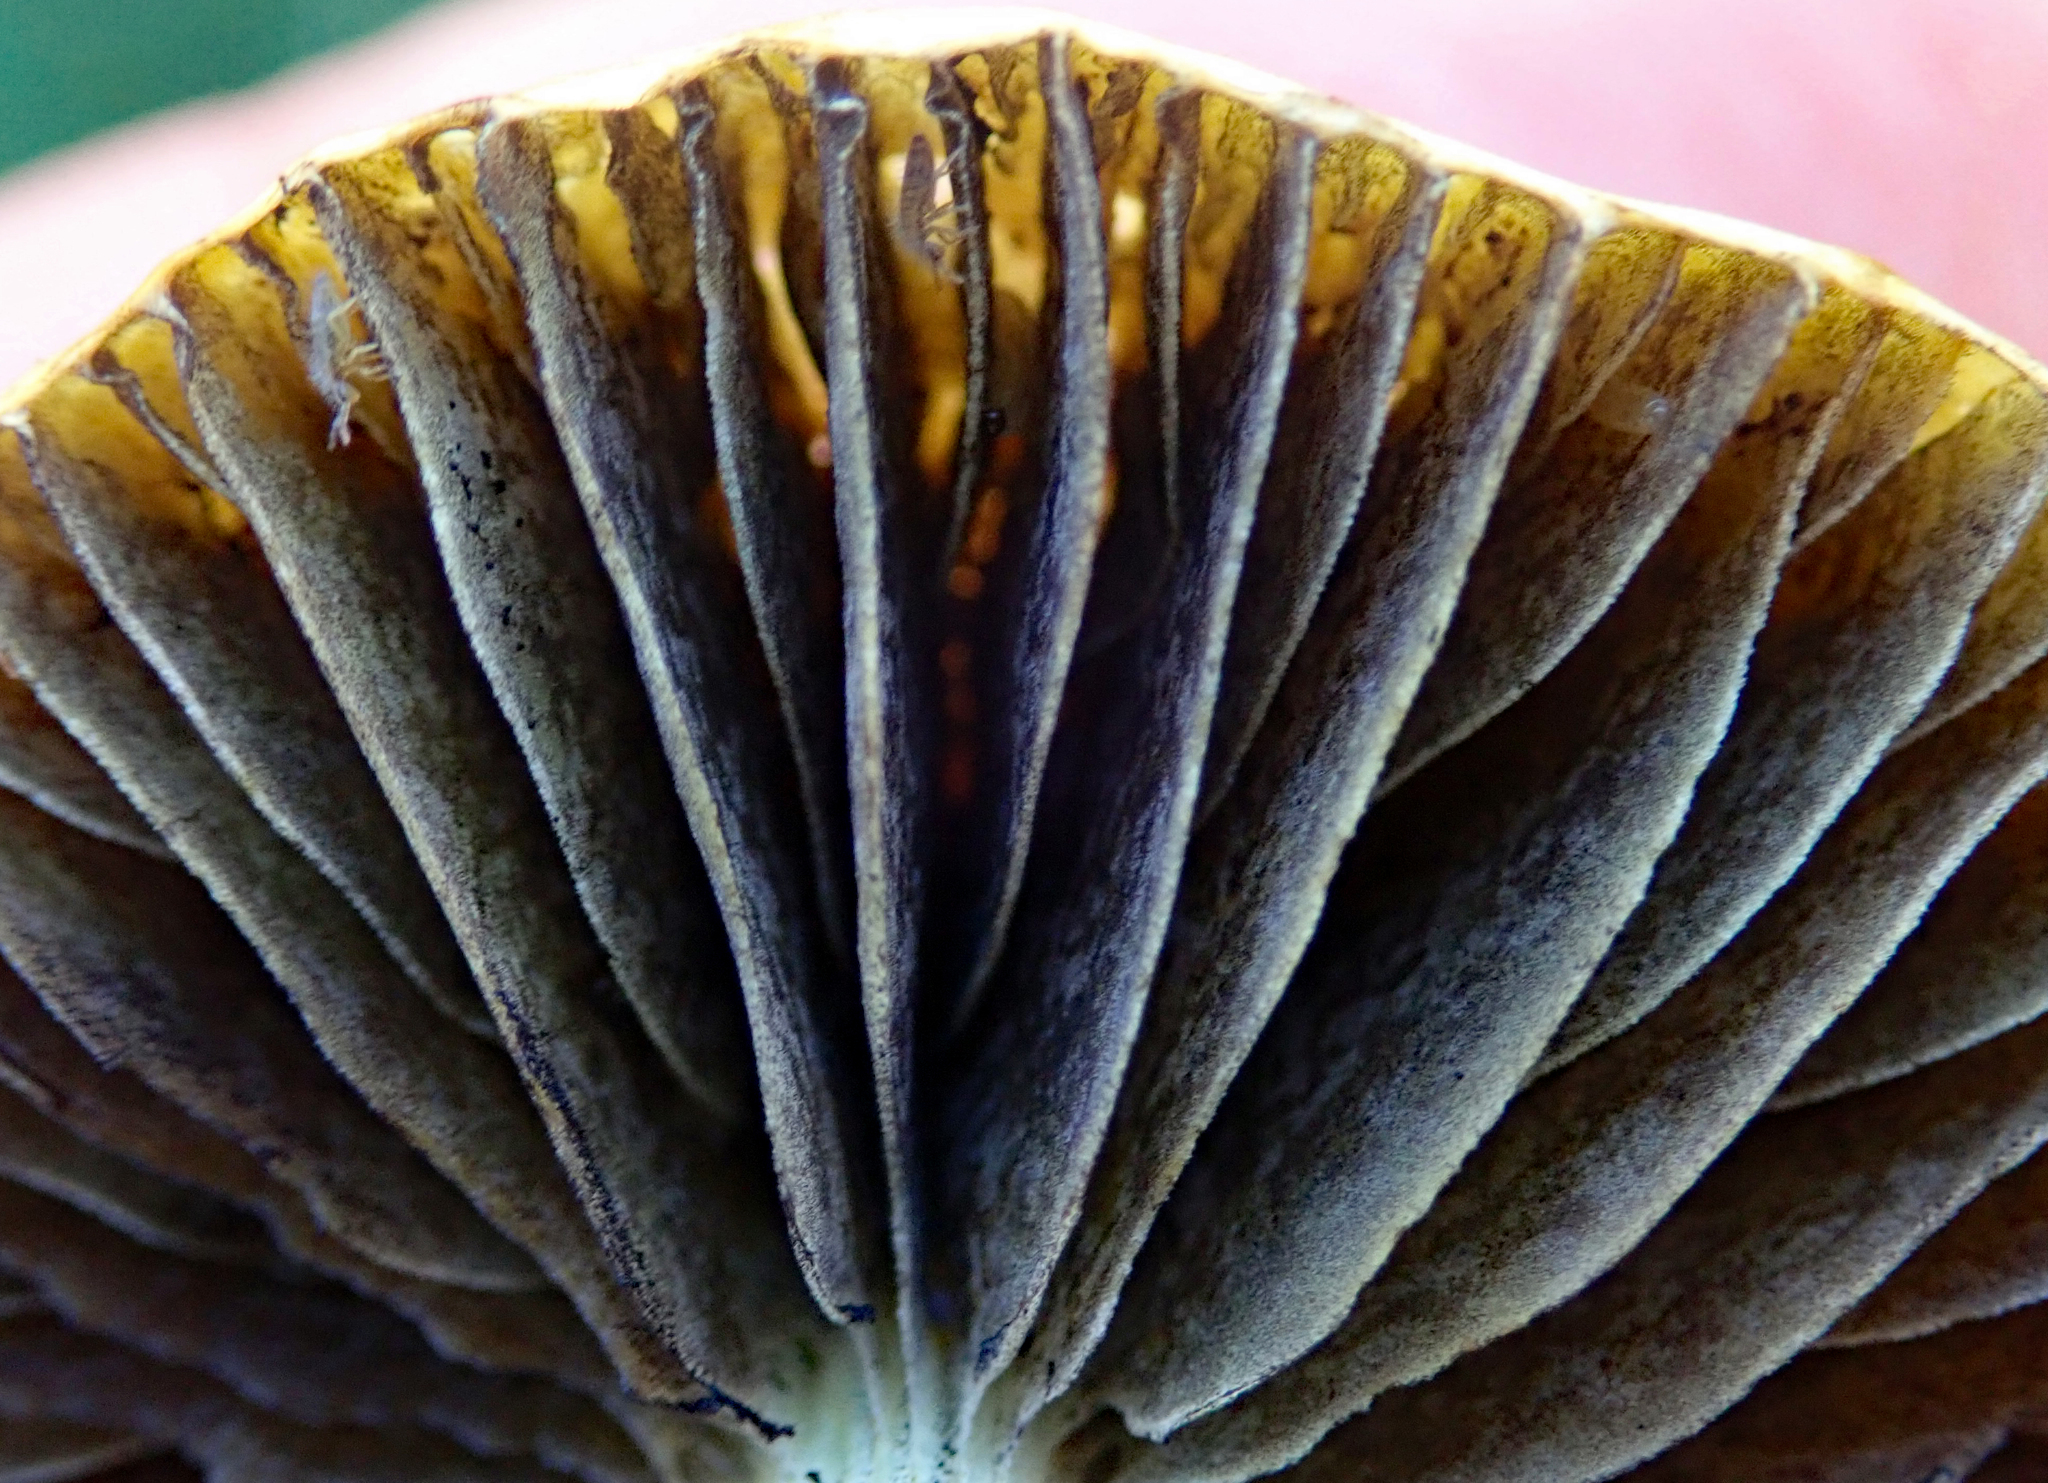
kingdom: Fungi
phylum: Basidiomycota
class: Agaricomycetes
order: Agaricales
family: Strophariaceae
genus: Agrocybe
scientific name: Agrocybe pediades
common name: Common fieldcap
